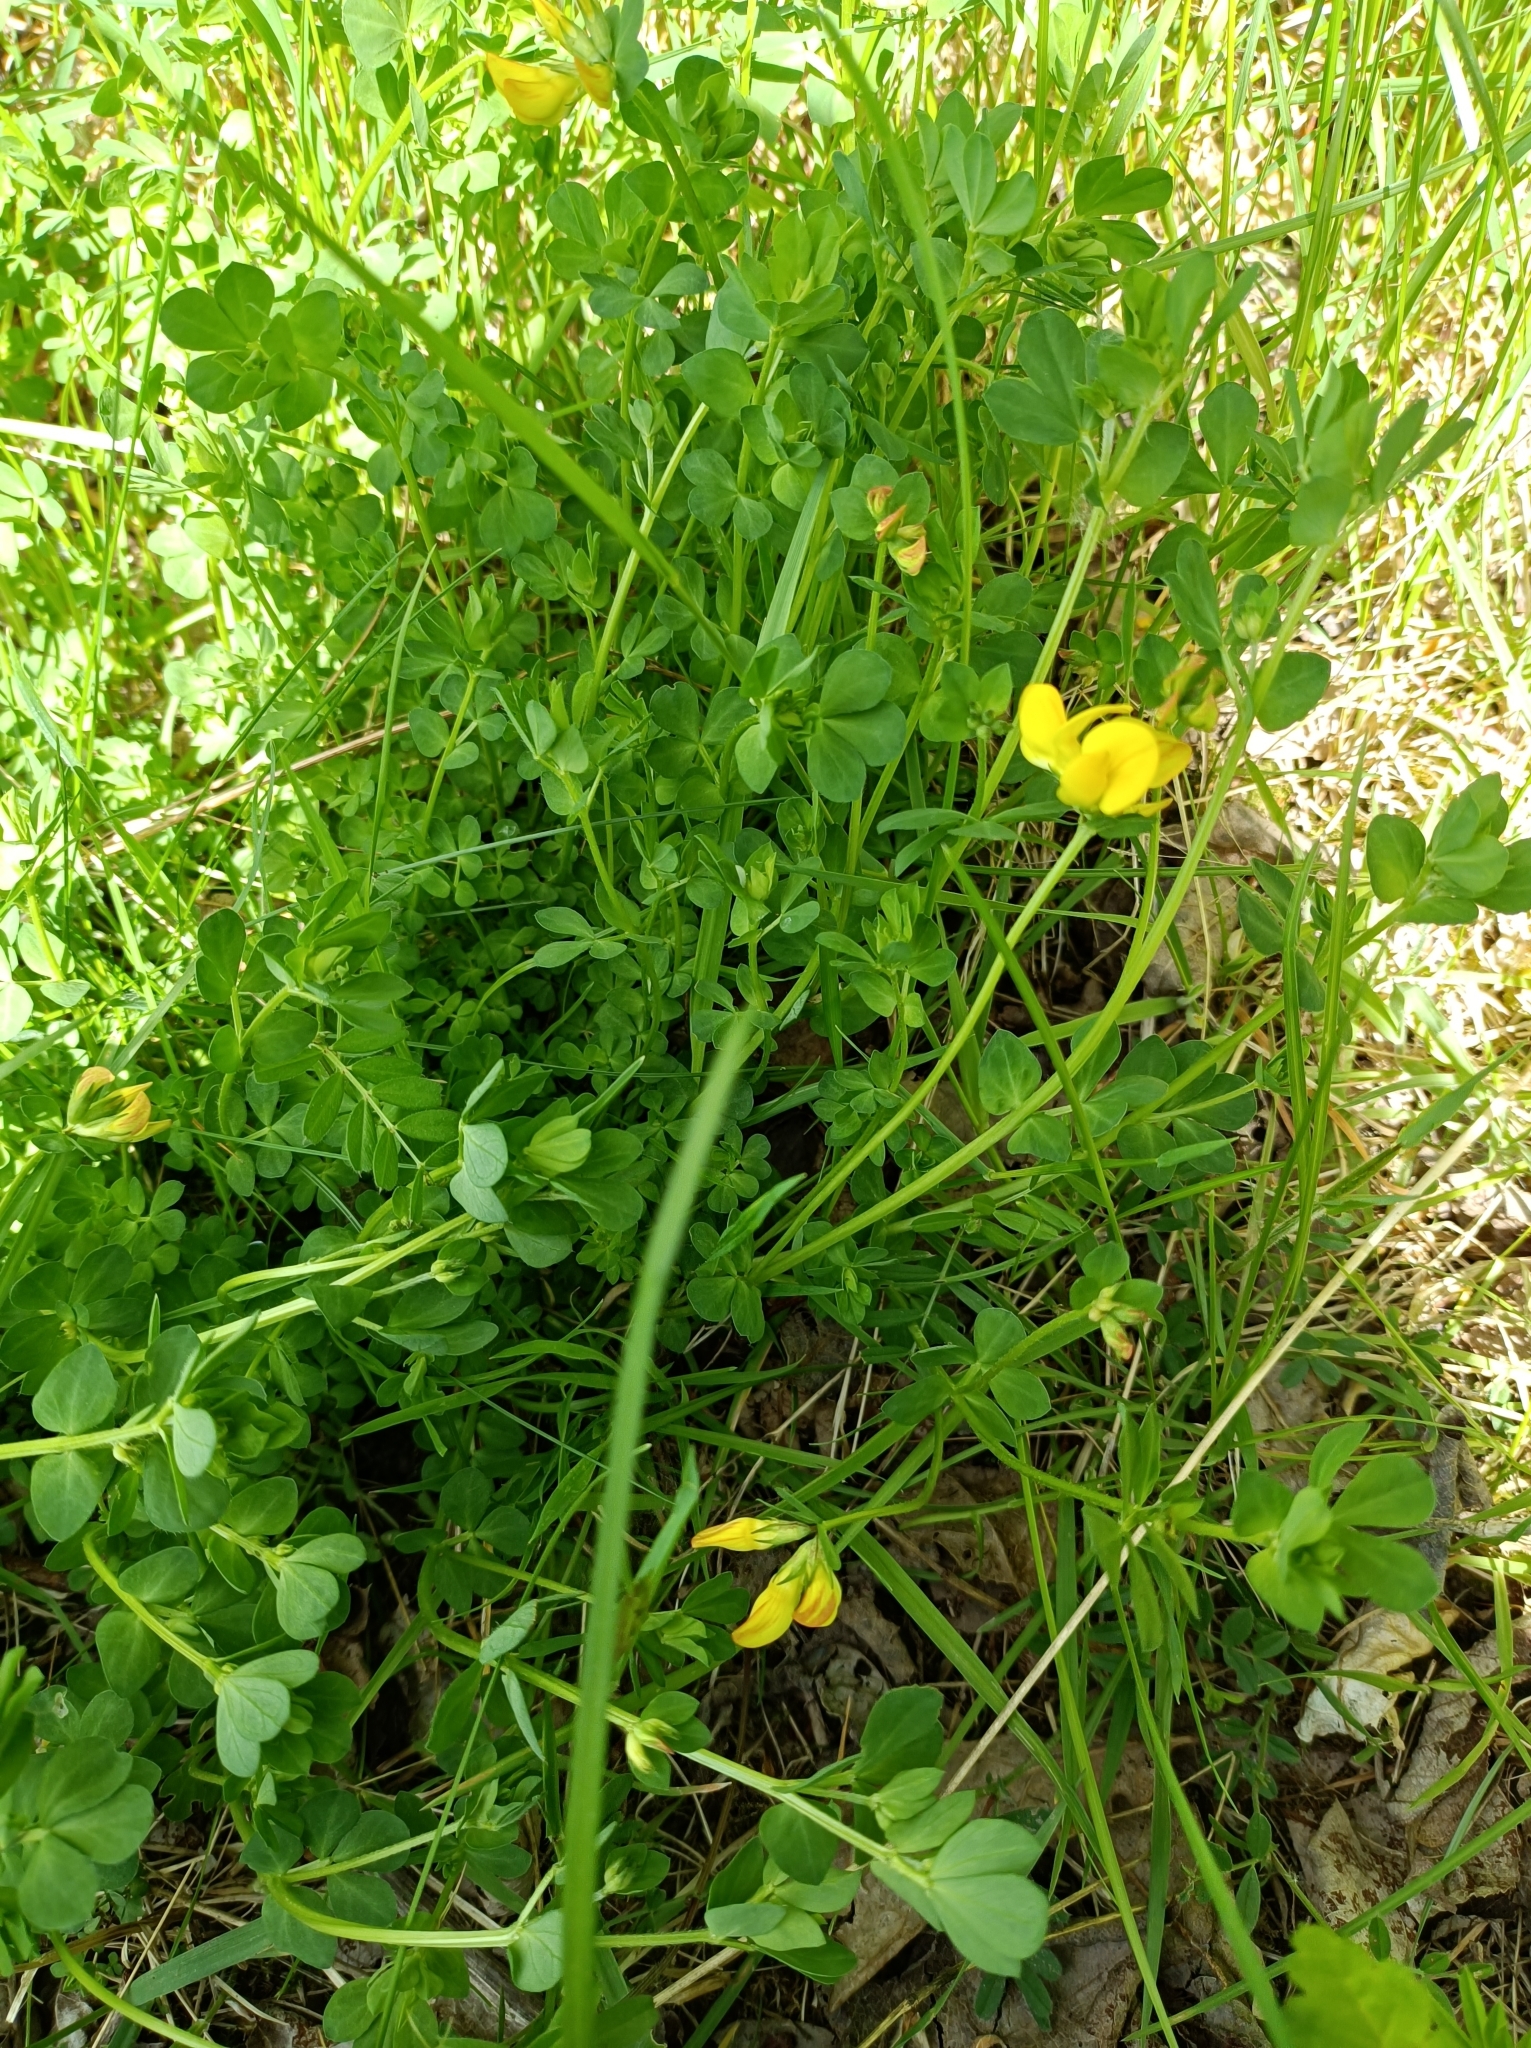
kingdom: Plantae
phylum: Tracheophyta
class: Magnoliopsida
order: Fabales
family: Fabaceae
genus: Lotus
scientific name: Lotus corniculatus
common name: Common bird's-foot-trefoil
